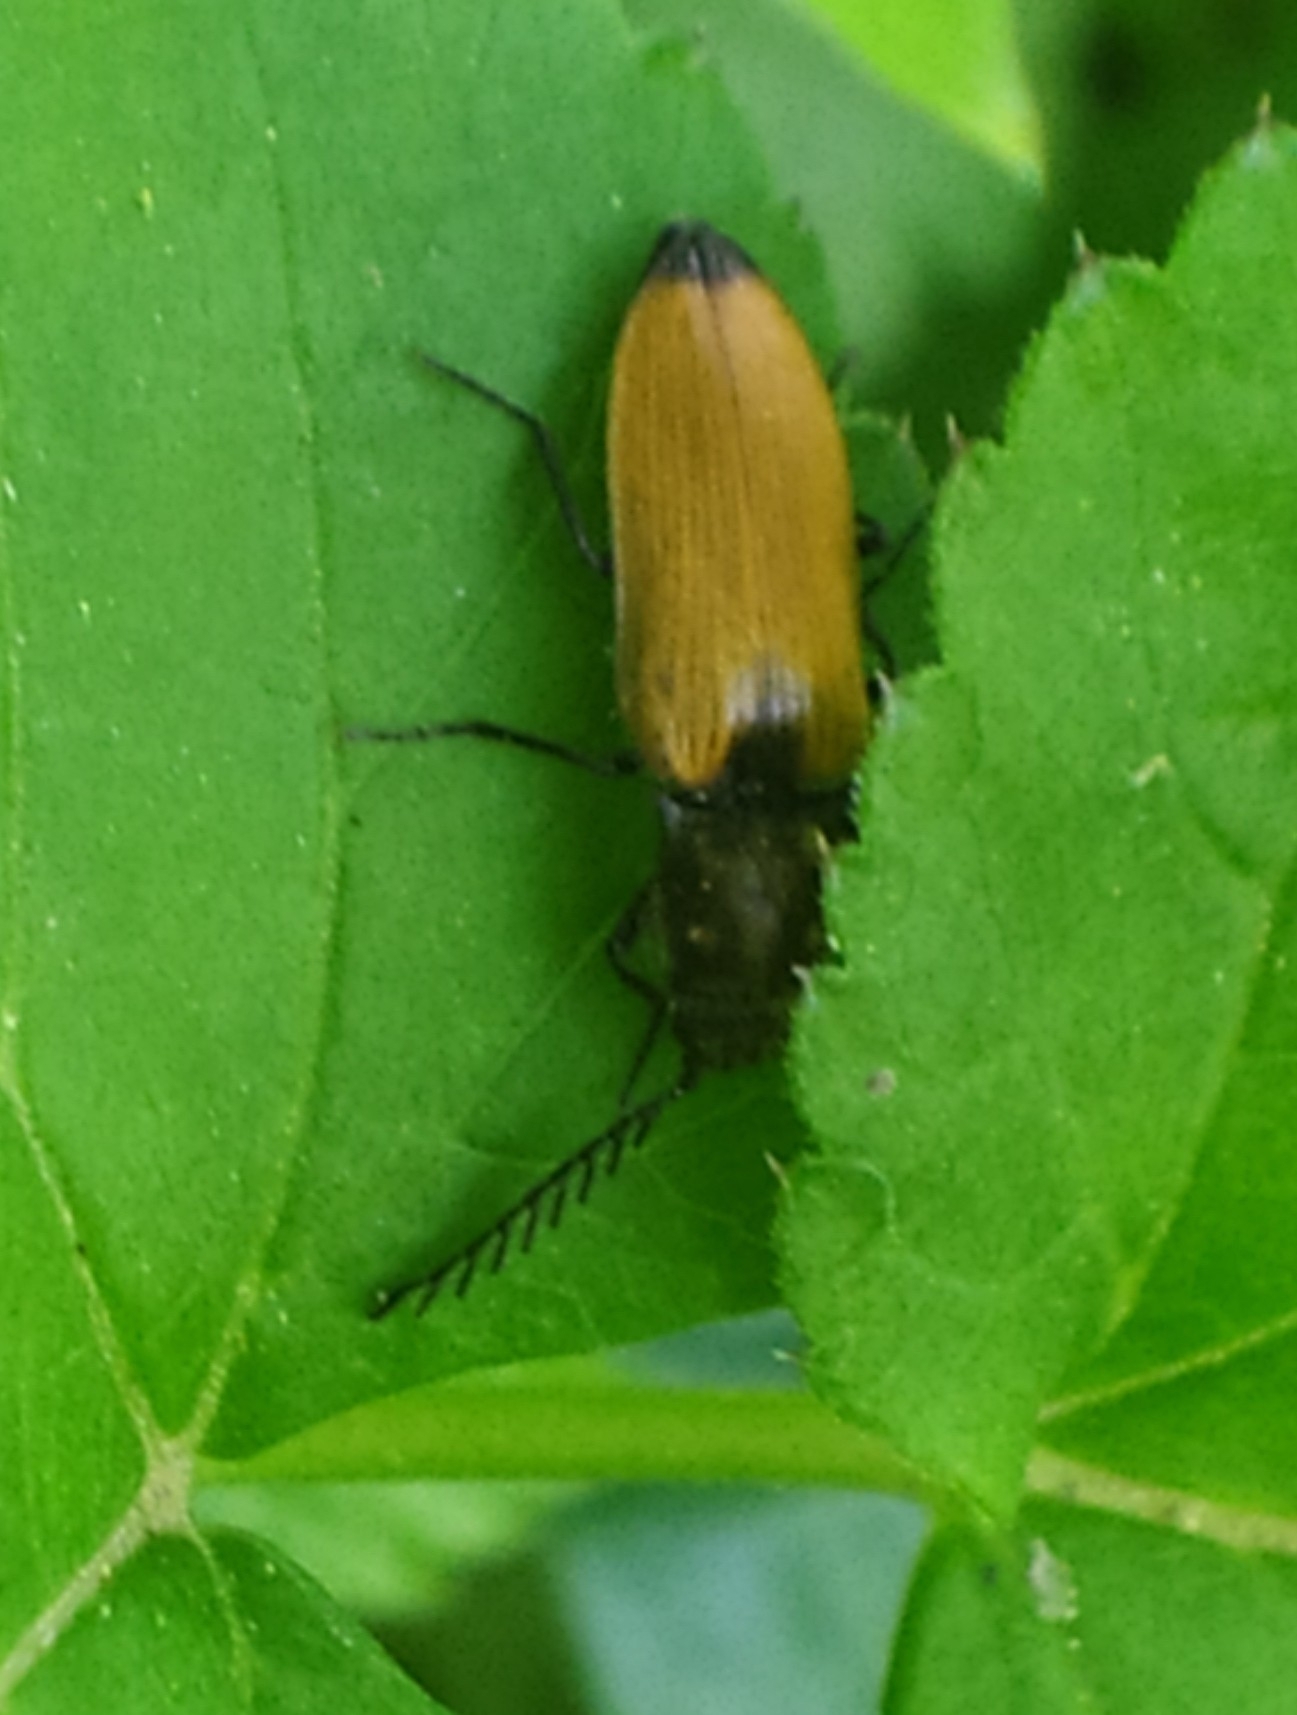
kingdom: Animalia
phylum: Arthropoda
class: Insecta
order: Coleoptera
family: Elateridae
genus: Anostirus
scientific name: Anostirus castaneus
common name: Chestnut coloured click beetle
